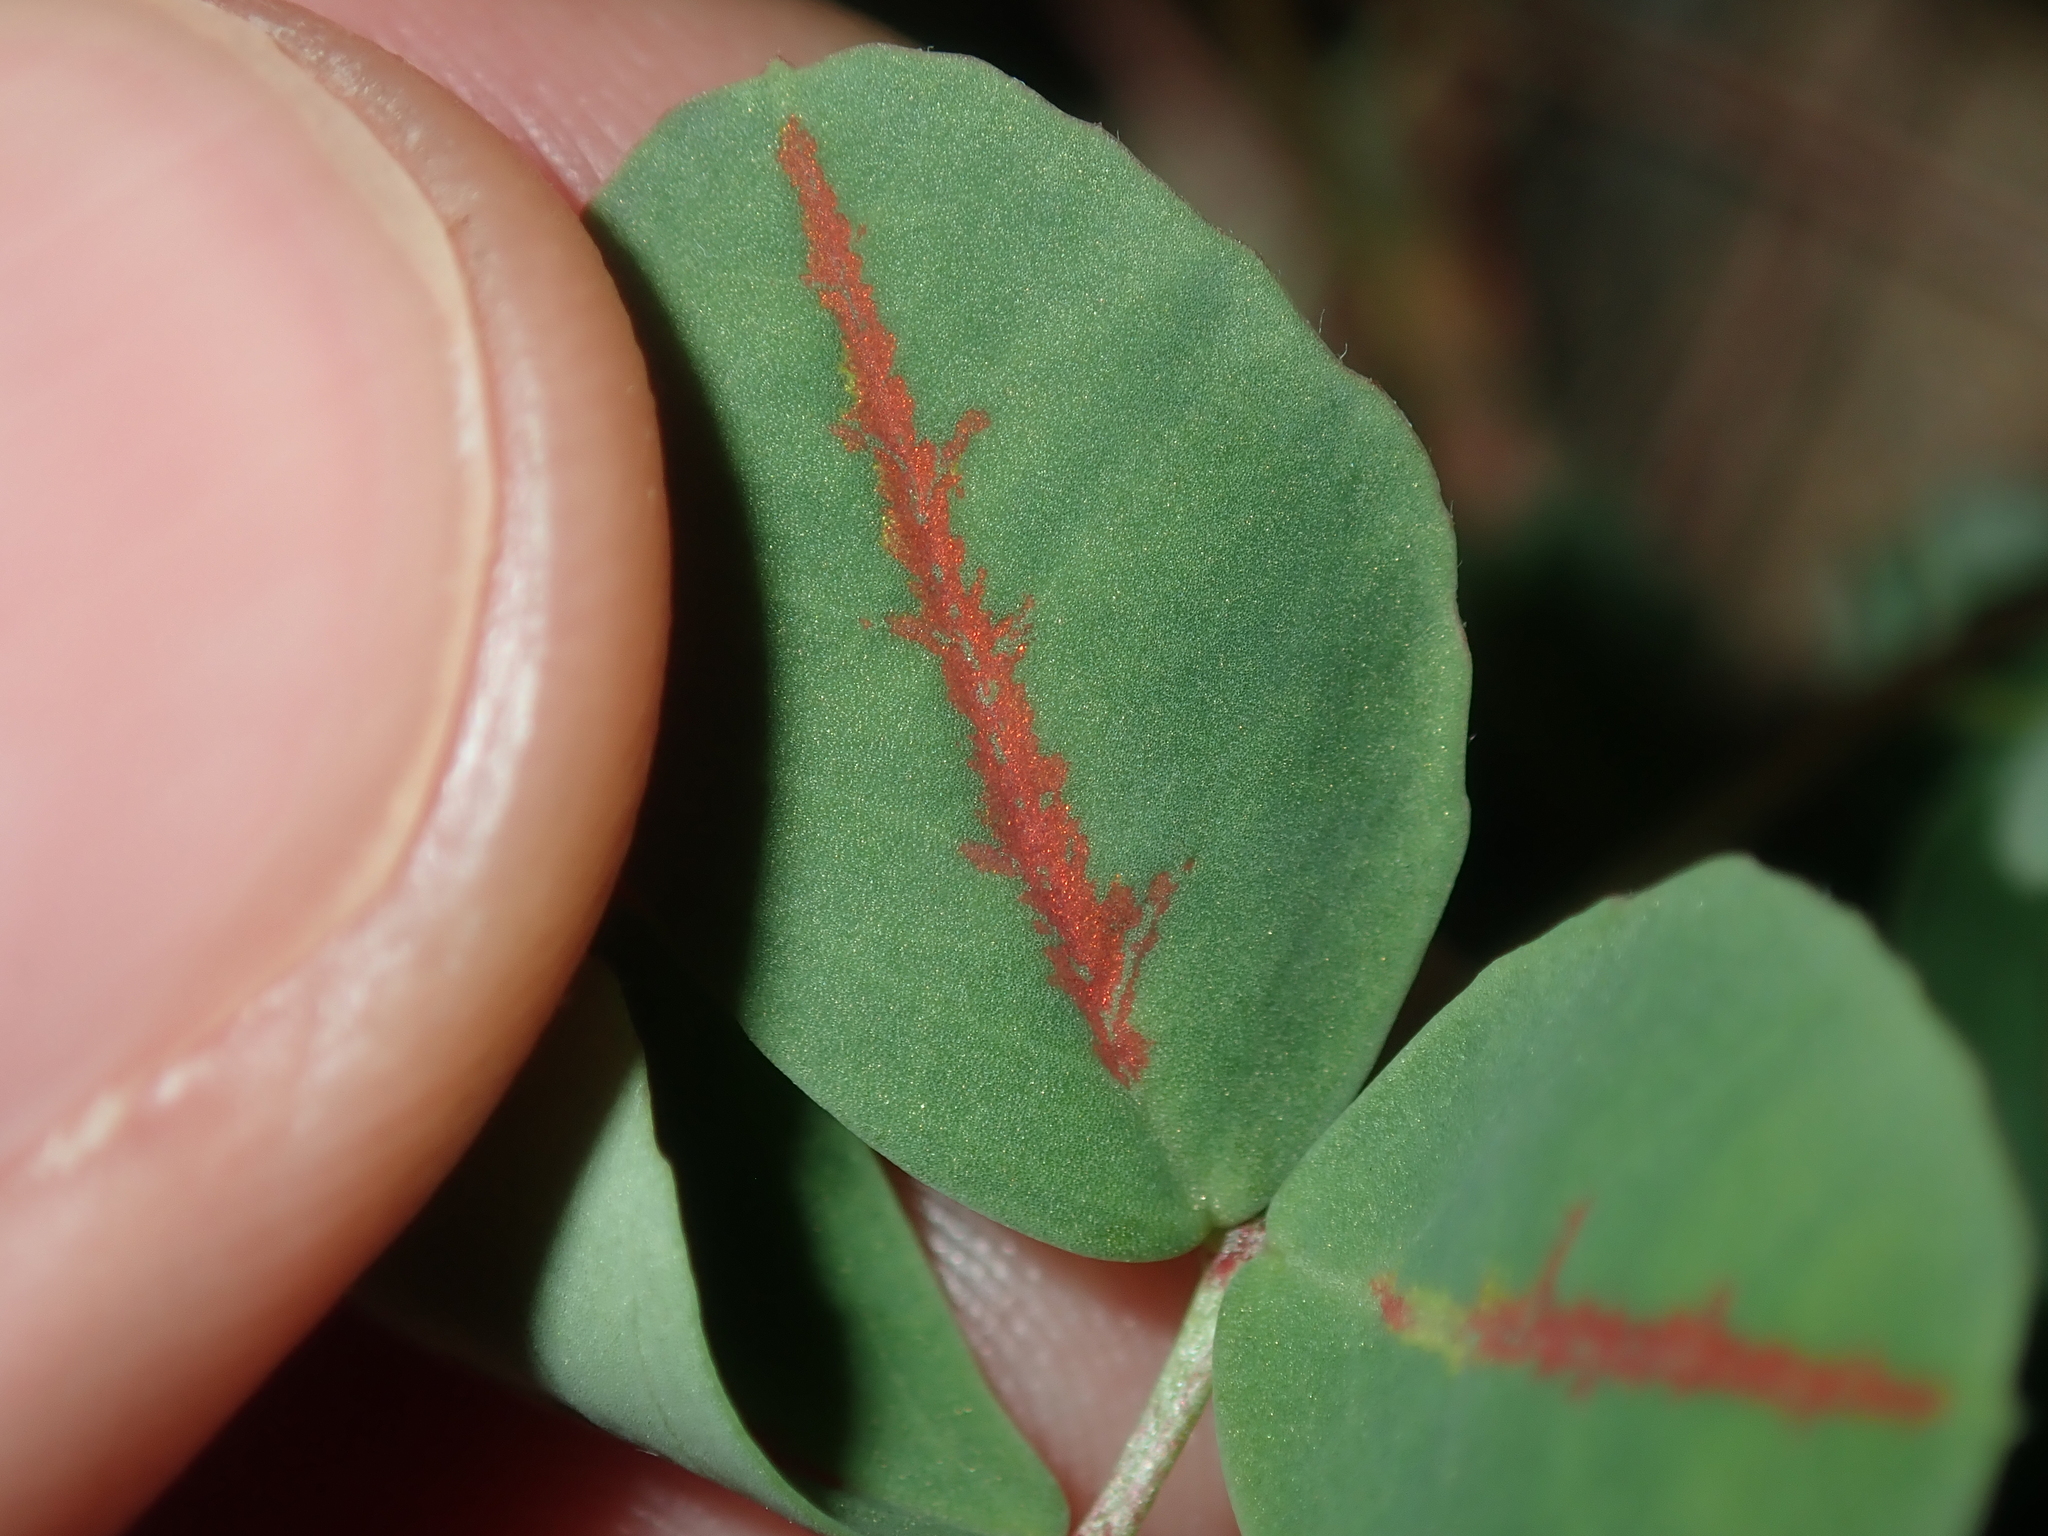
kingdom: Plantae
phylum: Tracheophyta
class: Magnoliopsida
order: Fabales
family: Fabaceae
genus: Melilotus
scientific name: Melilotus indicus
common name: Small melilot
